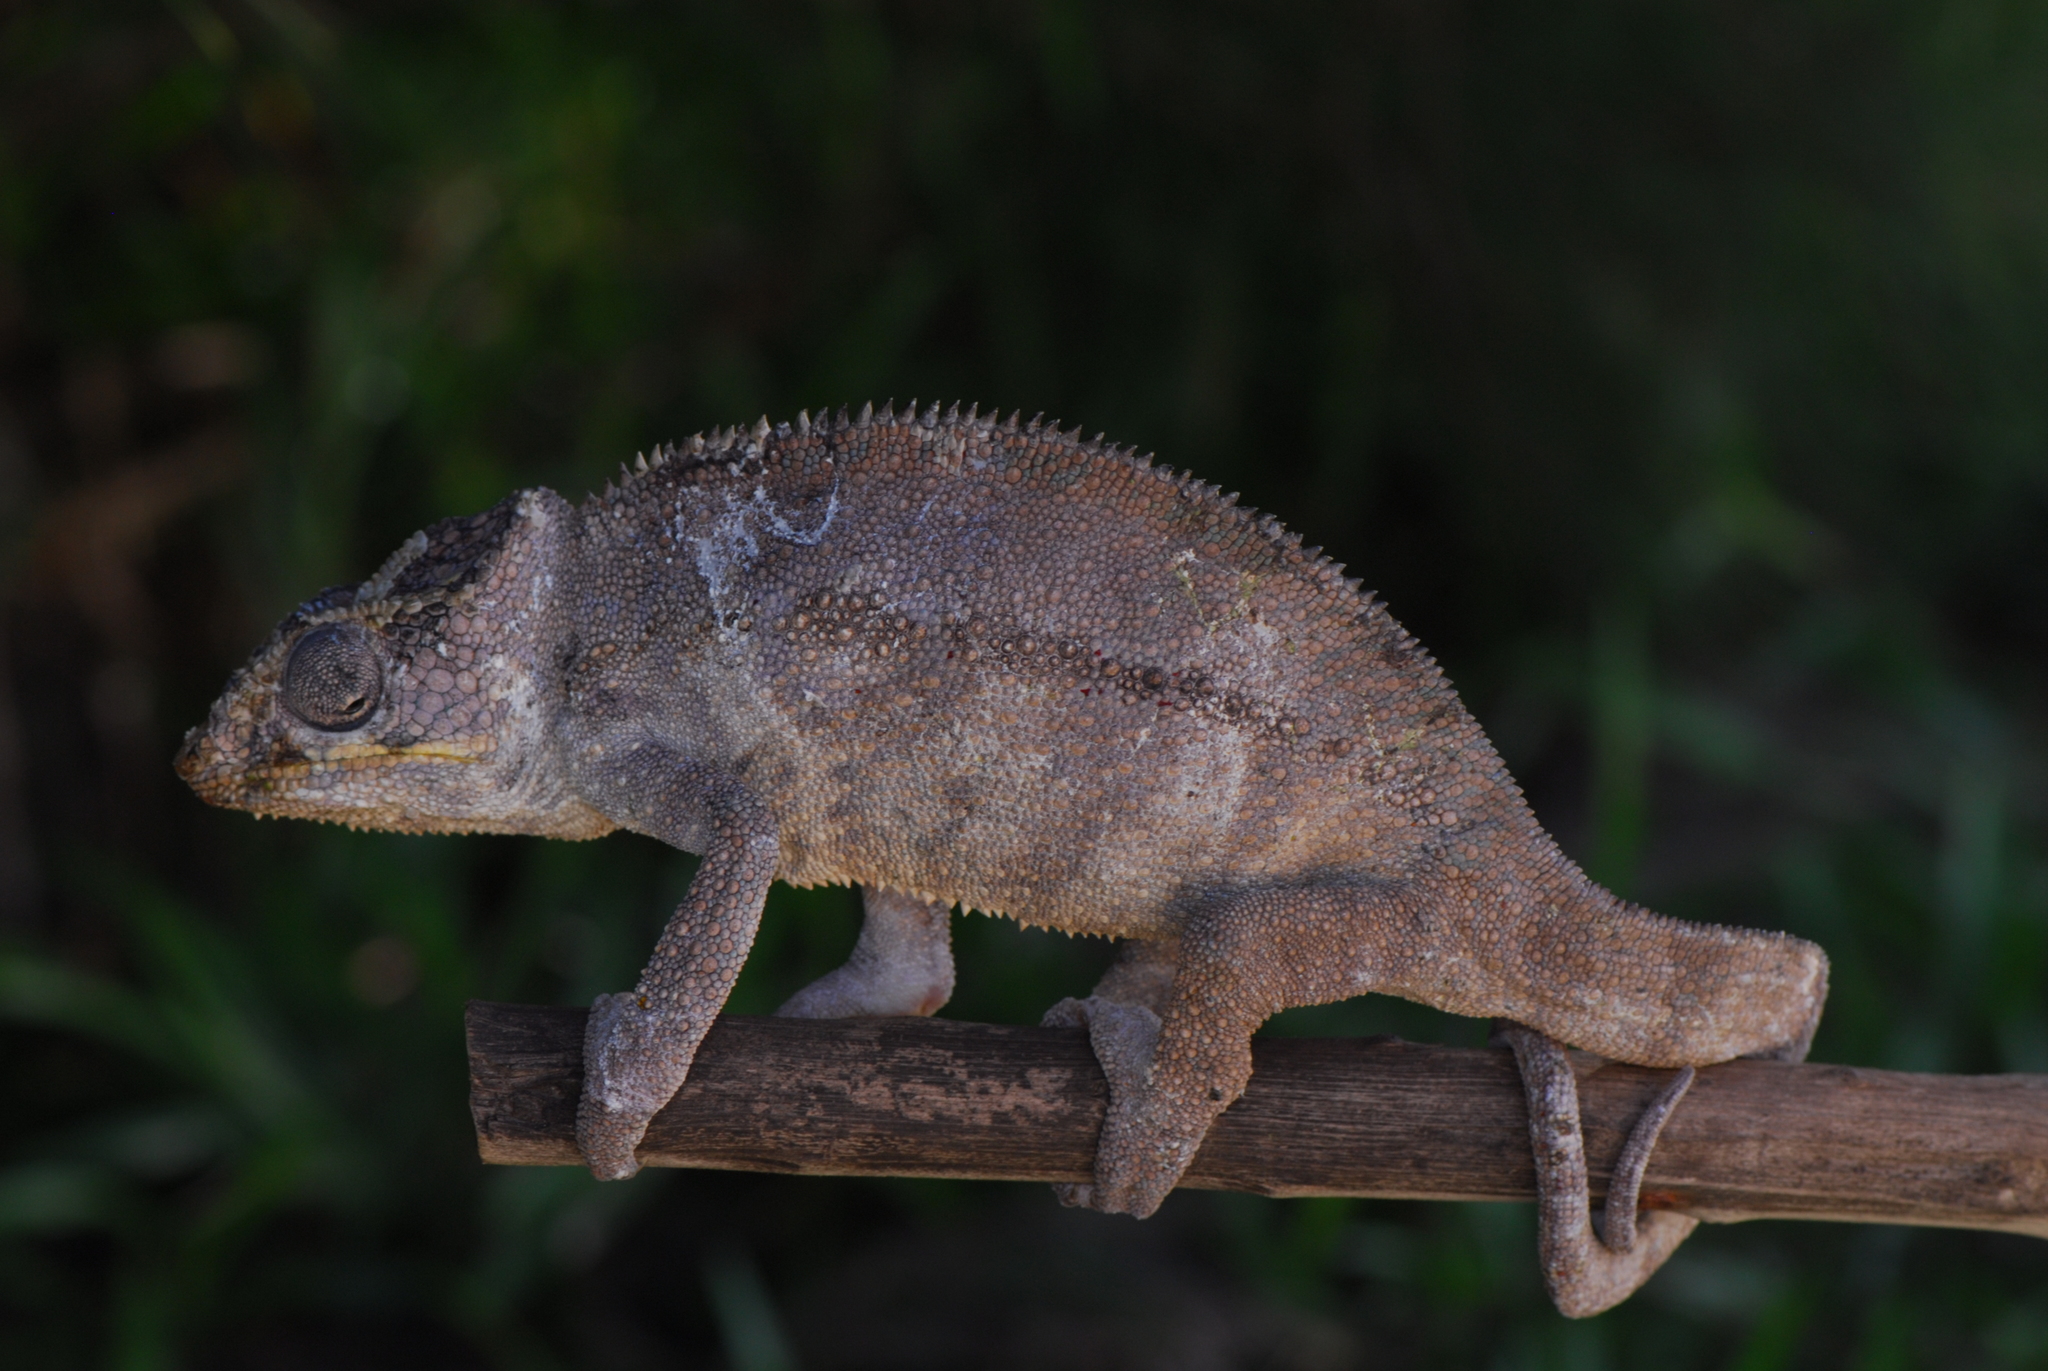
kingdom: Animalia
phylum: Chordata
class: Squamata
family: Chamaeleonidae
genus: Furcifer
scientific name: Furcifer pardalis
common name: Panther chameleon
